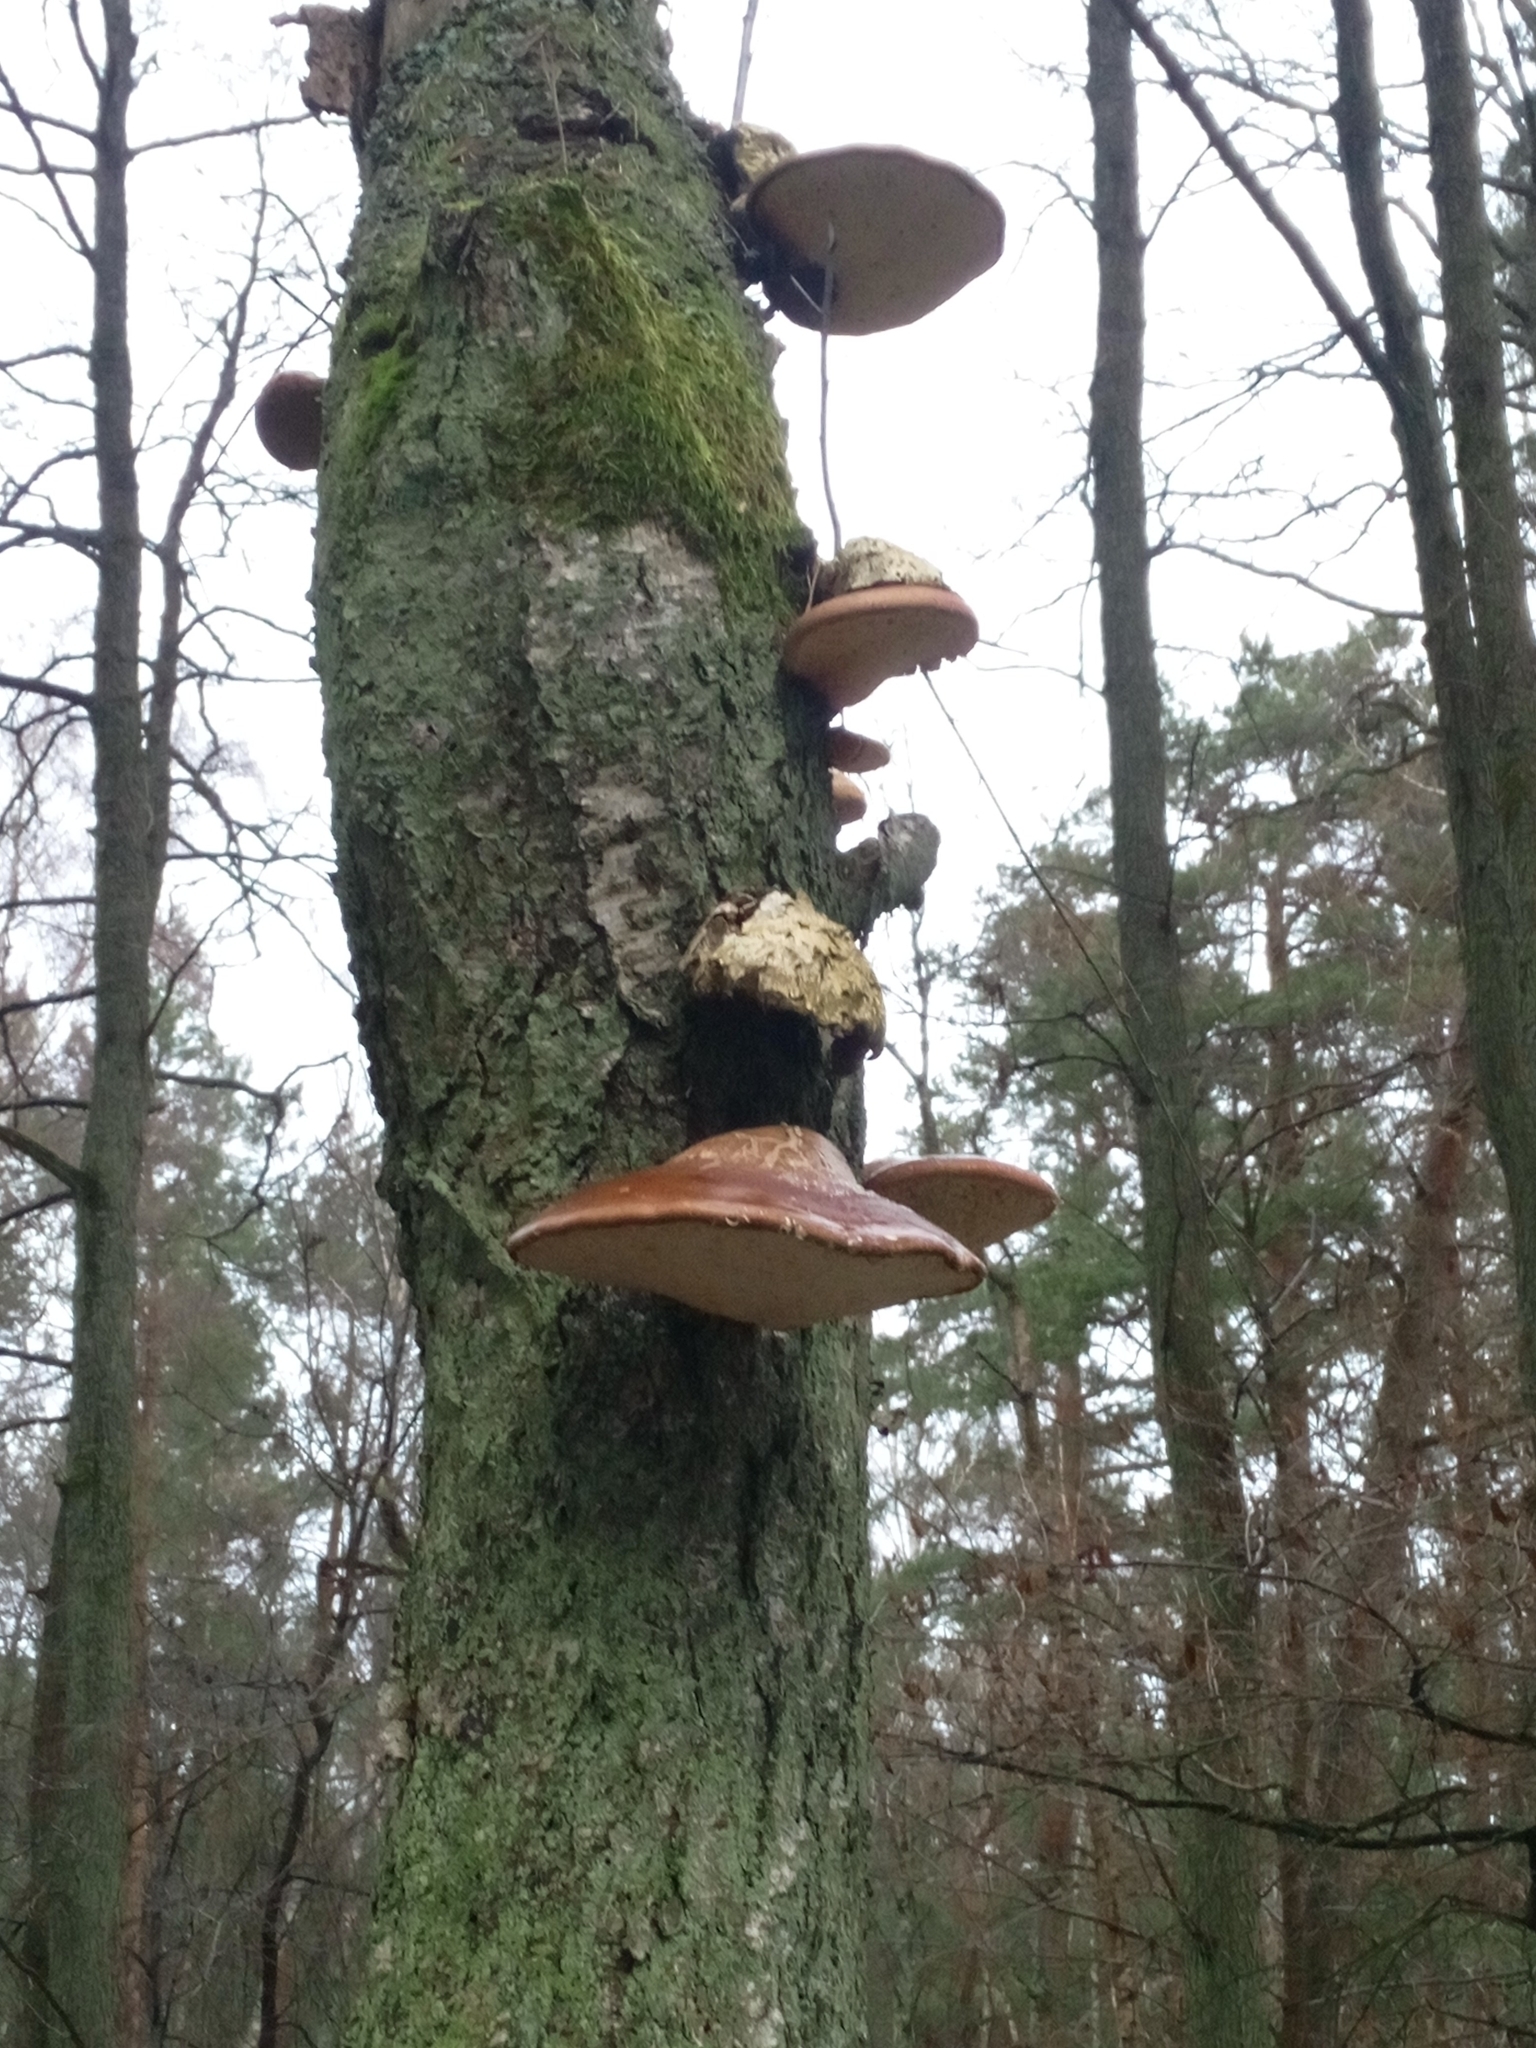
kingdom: Fungi
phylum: Basidiomycota
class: Agaricomycetes
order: Polyporales
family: Fomitopsidaceae
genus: Fomitopsis
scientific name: Fomitopsis betulina
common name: Birch polypore
